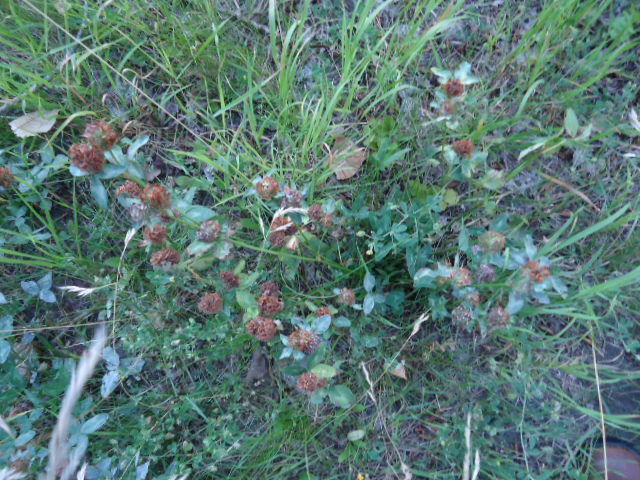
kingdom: Plantae
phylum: Tracheophyta
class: Magnoliopsida
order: Fabales
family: Fabaceae
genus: Trifolium
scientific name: Trifolium pratense
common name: Red clover
